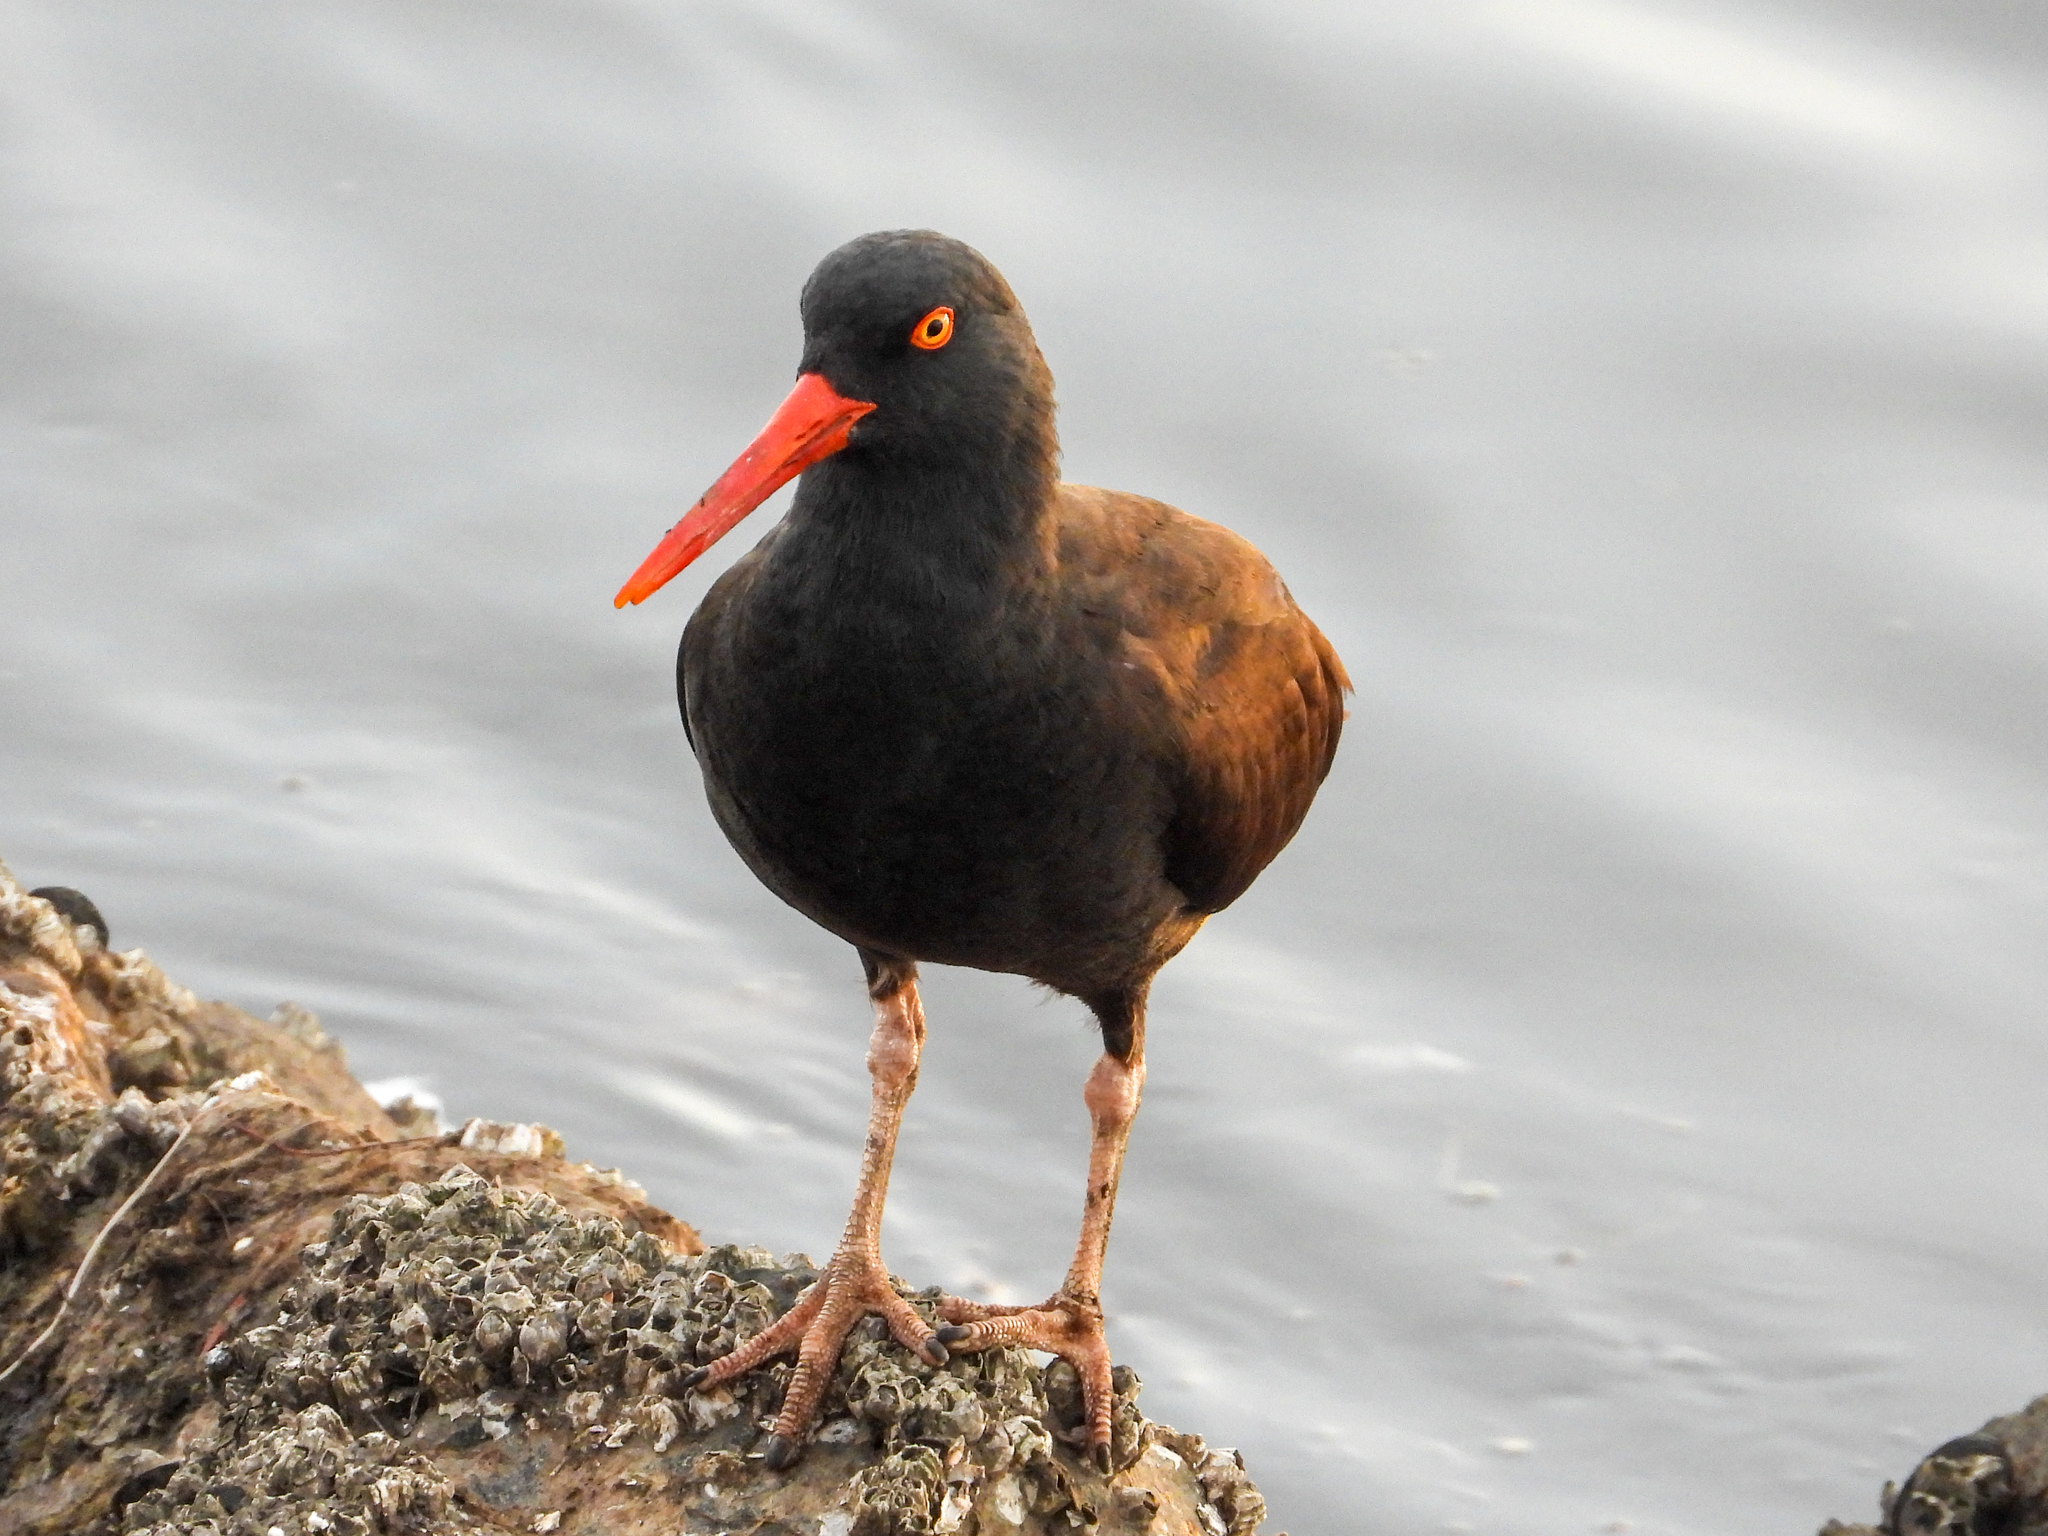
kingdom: Animalia
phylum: Chordata
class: Aves
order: Charadriiformes
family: Haematopodidae
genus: Haematopus
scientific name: Haematopus bachmani
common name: Black oystercatcher
